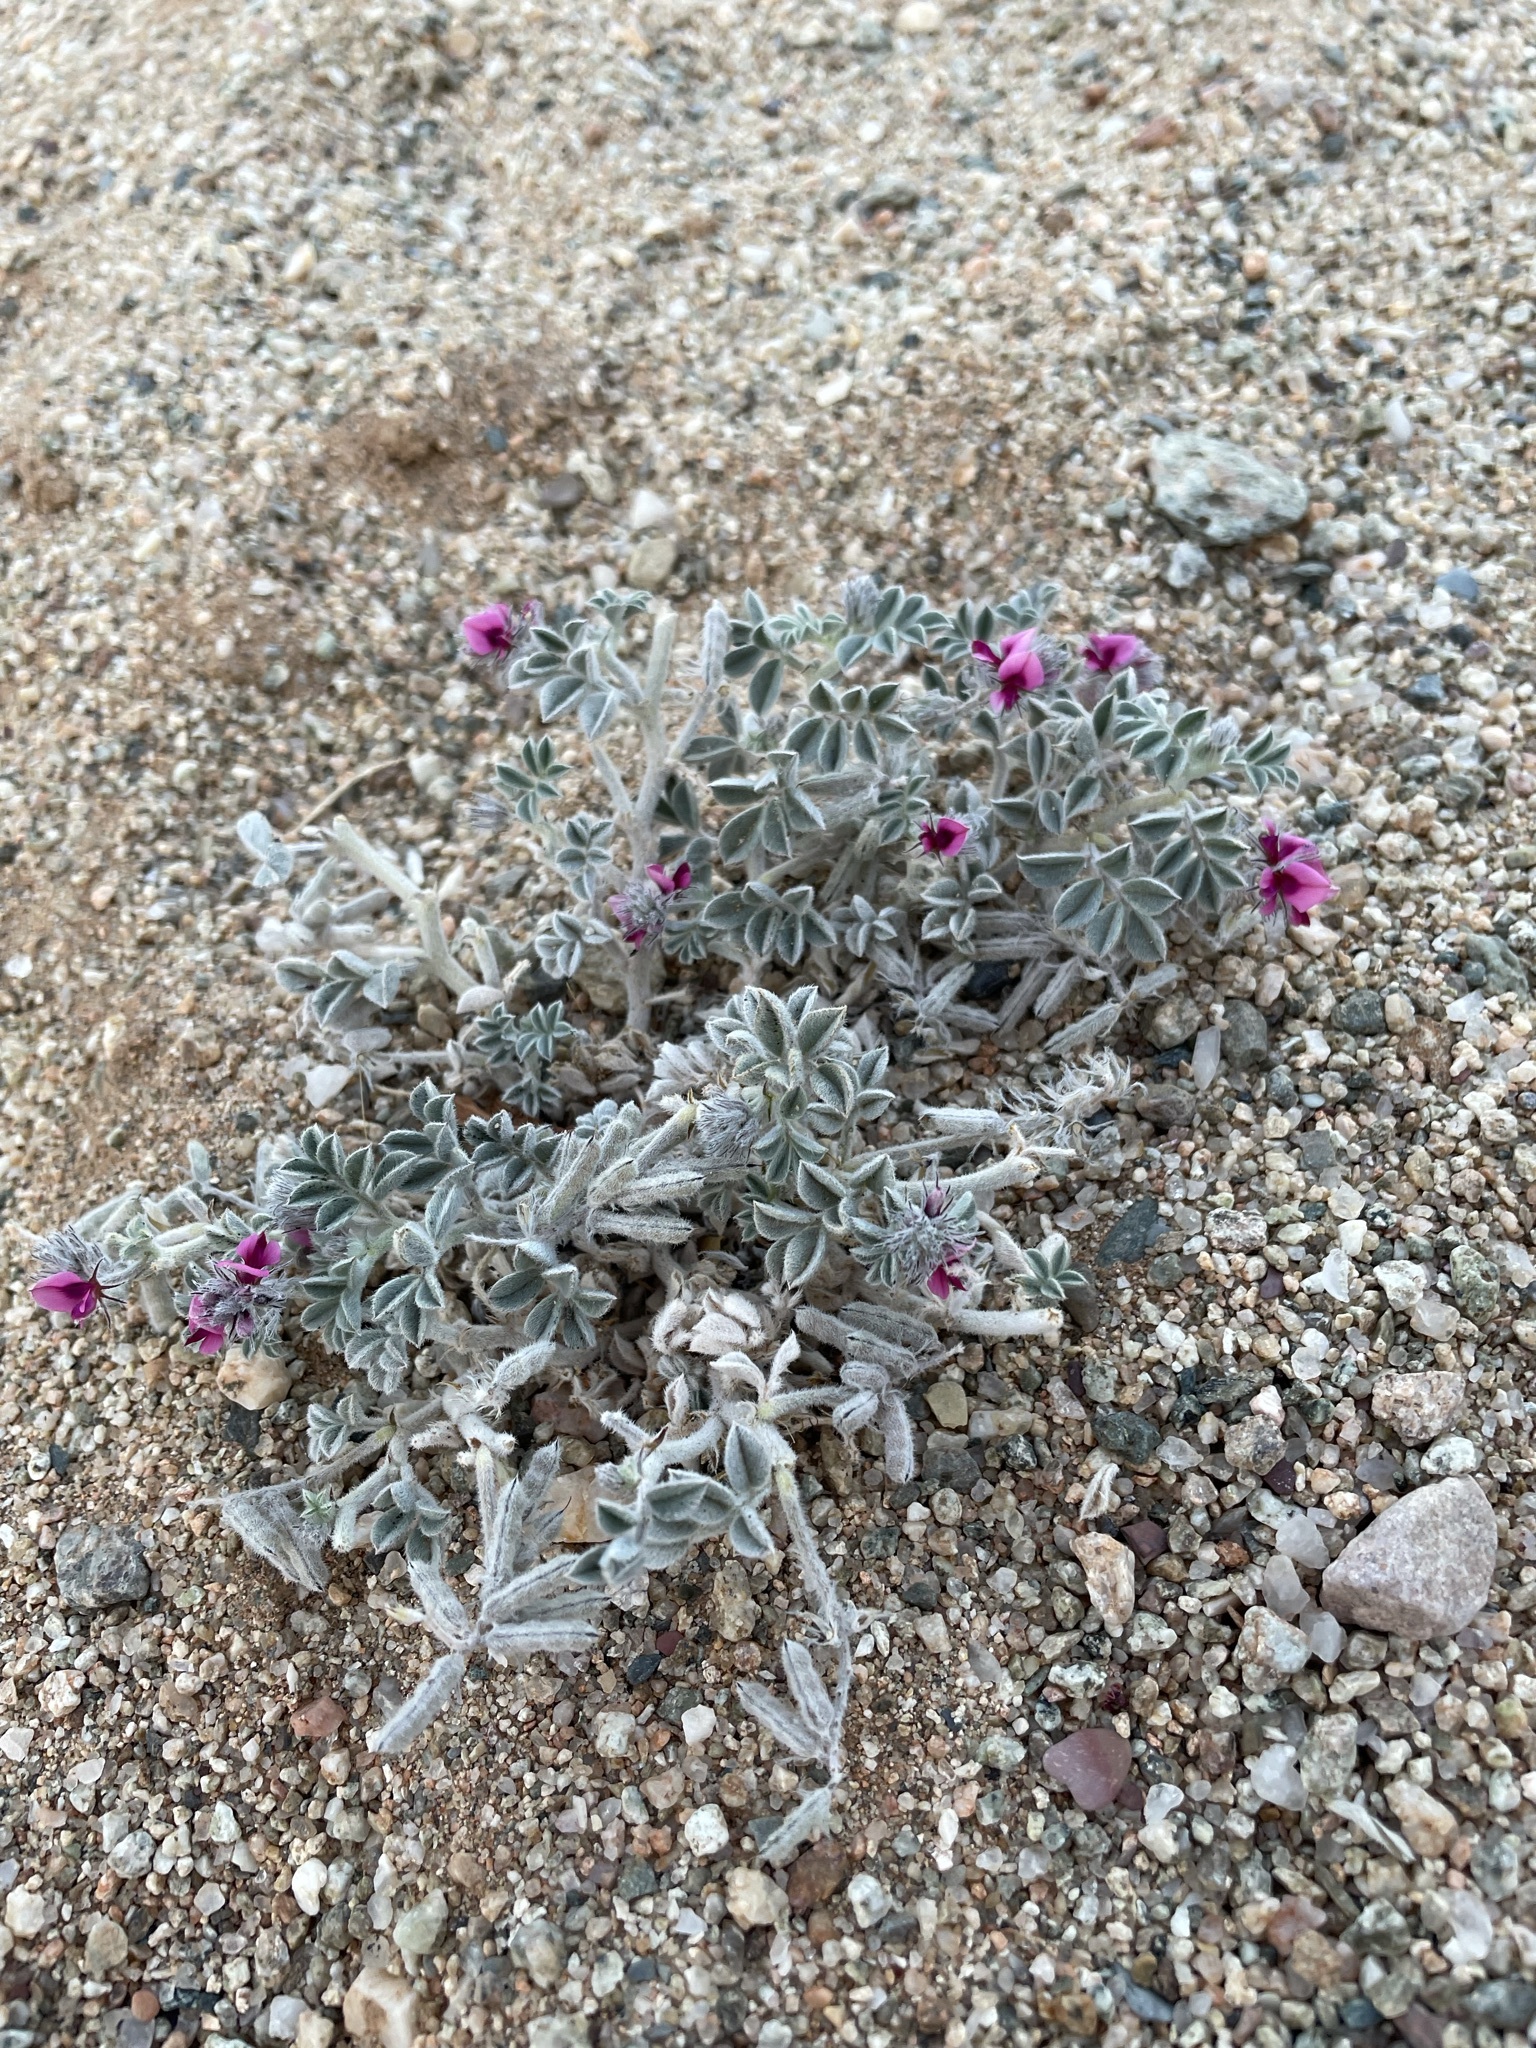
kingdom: Plantae
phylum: Tracheophyta
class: Magnoliopsida
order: Fabales
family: Fabaceae
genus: Microcharis
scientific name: Microcharis garissaensis
